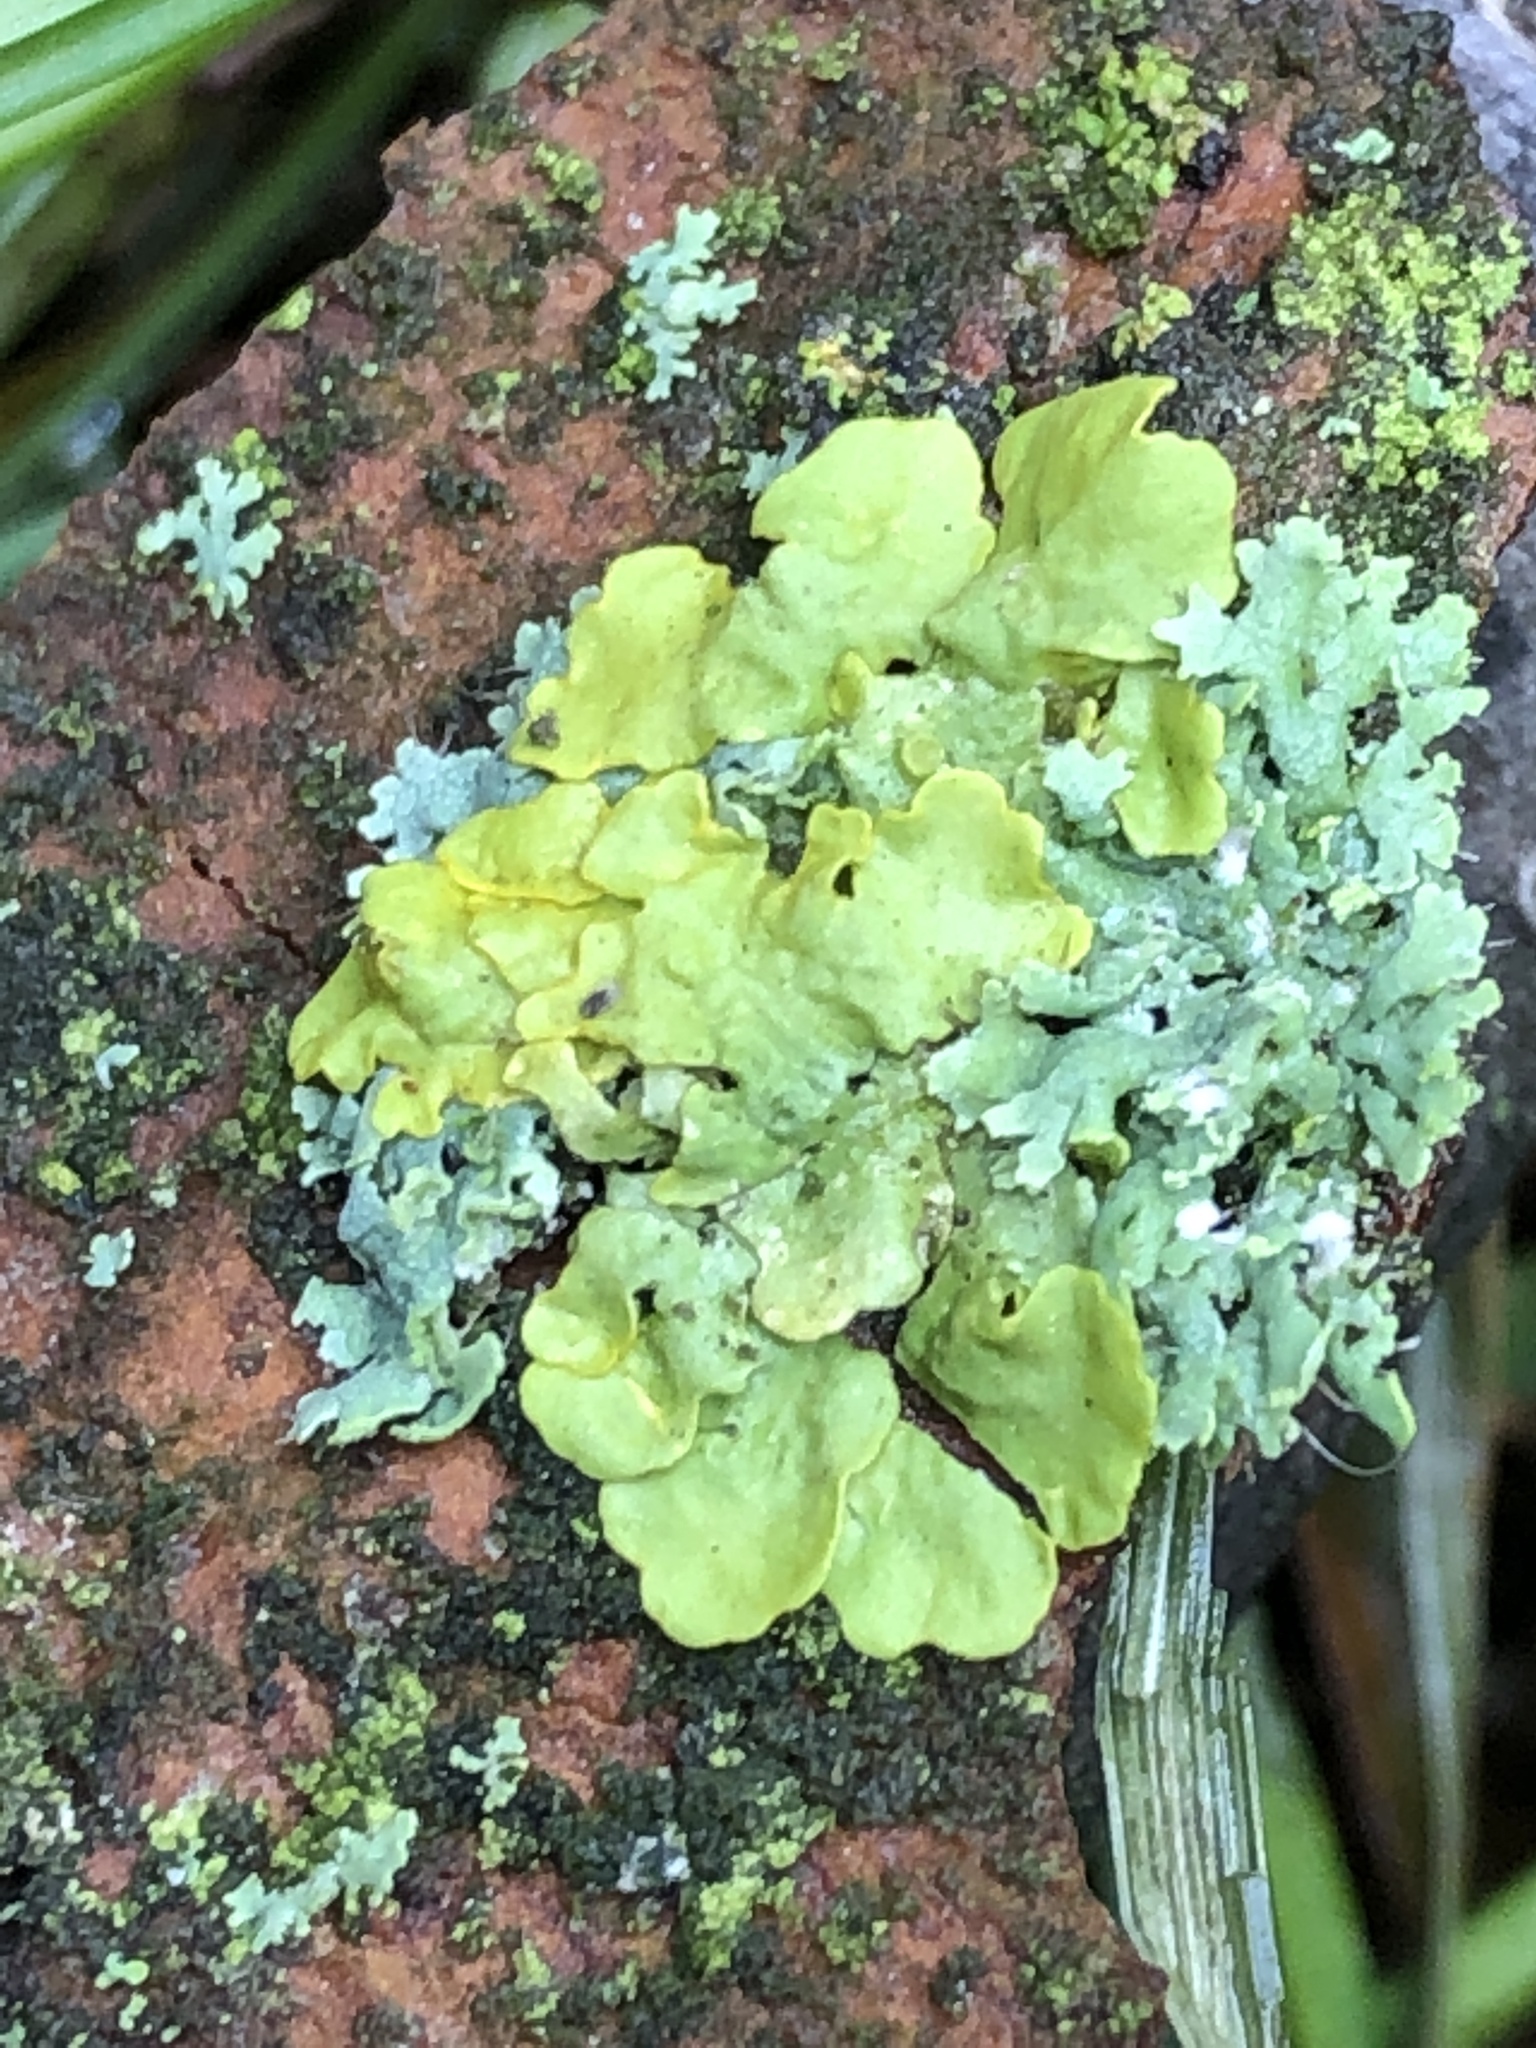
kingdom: Fungi
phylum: Ascomycota
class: Lecanoromycetes
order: Teloschistales
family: Teloschistaceae
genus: Xanthoria
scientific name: Xanthoria parietina
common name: Common orange lichen
